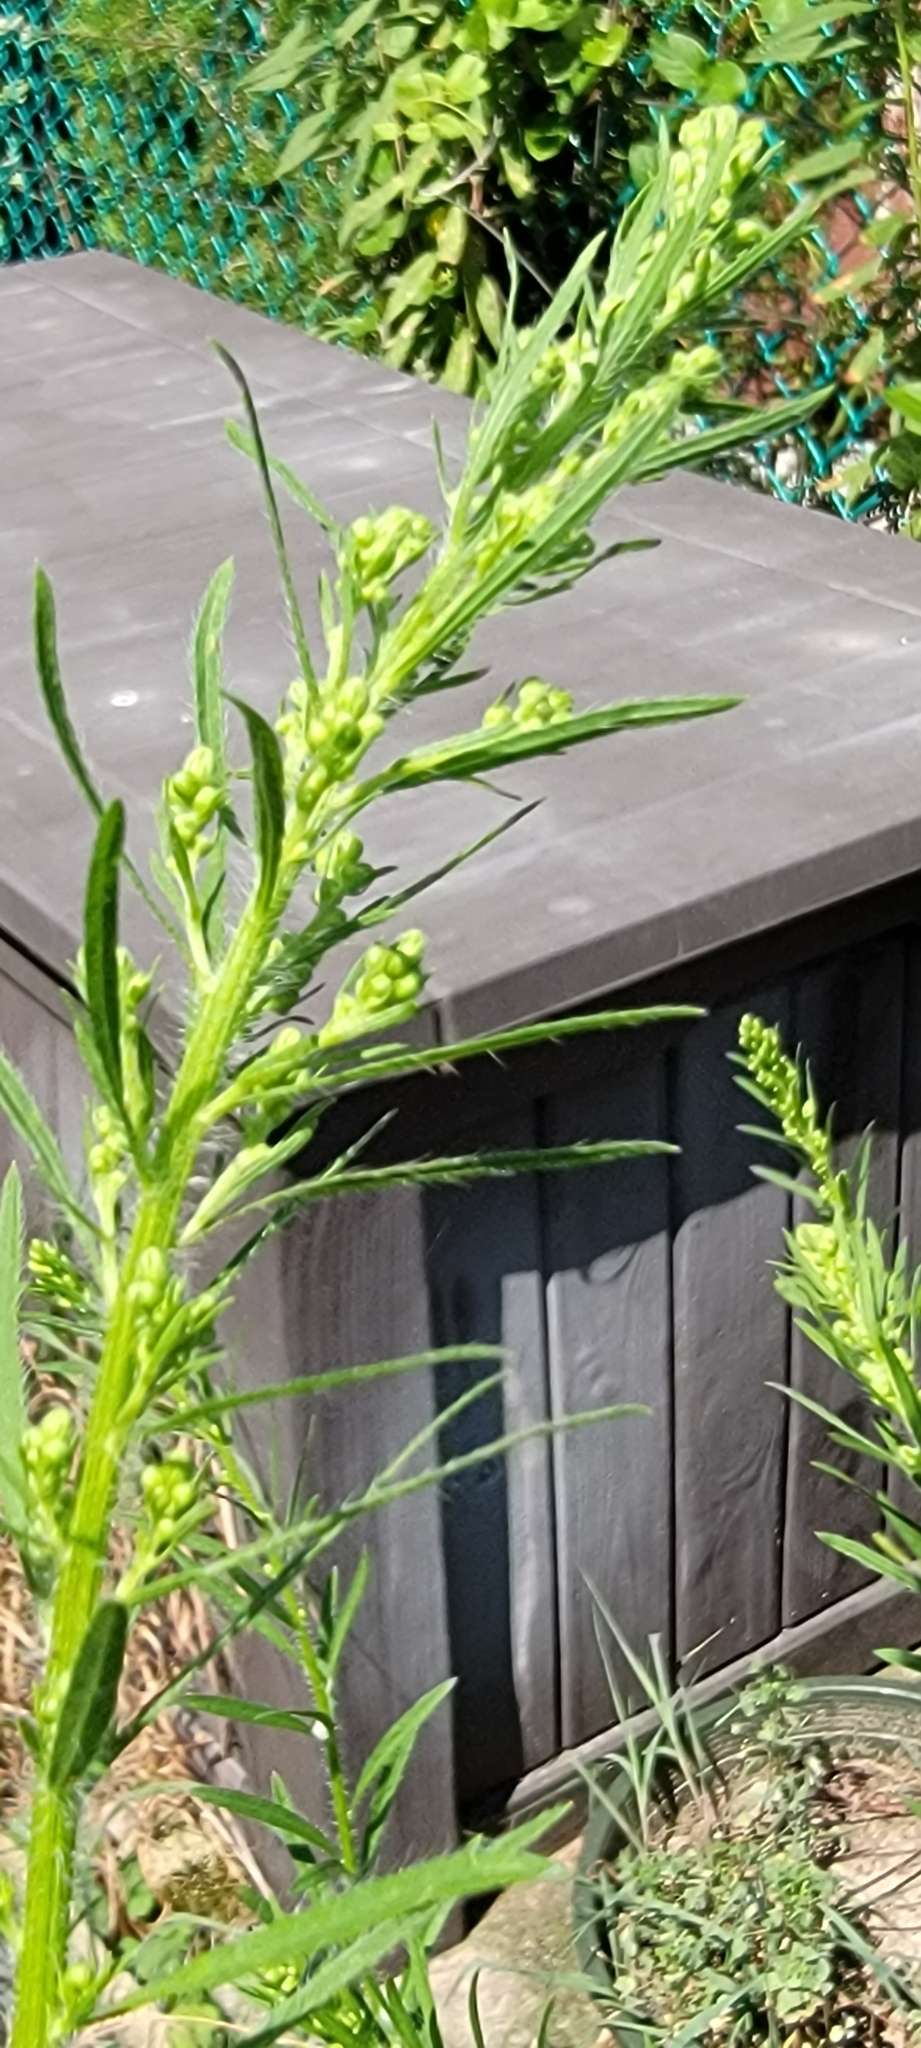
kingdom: Plantae
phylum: Tracheophyta
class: Magnoliopsida
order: Asterales
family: Asteraceae
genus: Erigeron
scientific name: Erigeron canadensis
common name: Canadian fleabane
